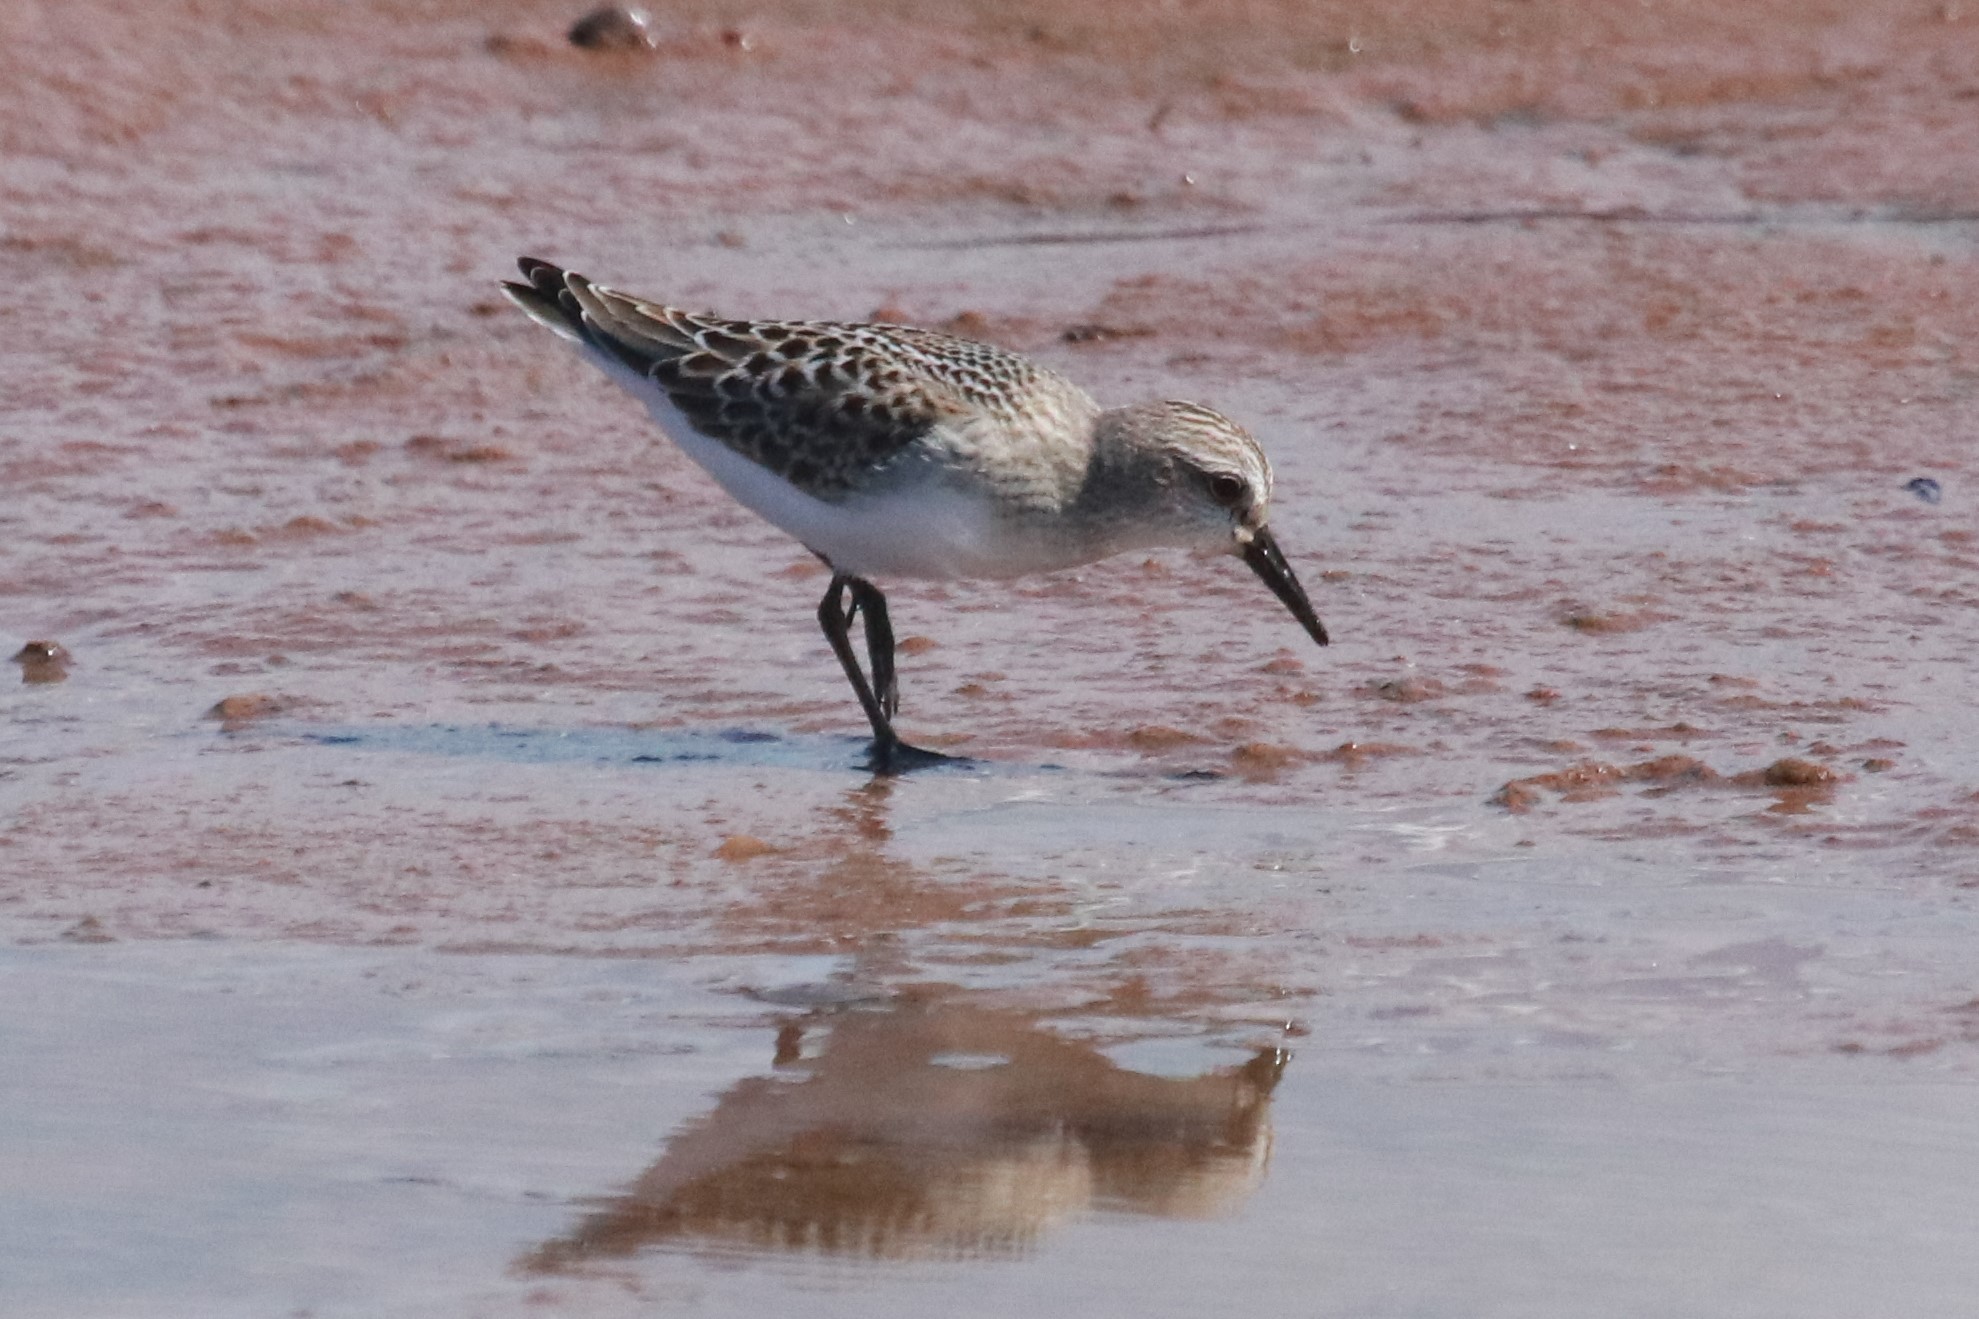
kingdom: Animalia
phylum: Chordata
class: Aves
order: Charadriiformes
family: Scolopacidae
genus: Calidris
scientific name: Calidris pusilla
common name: Semipalmated sandpiper
